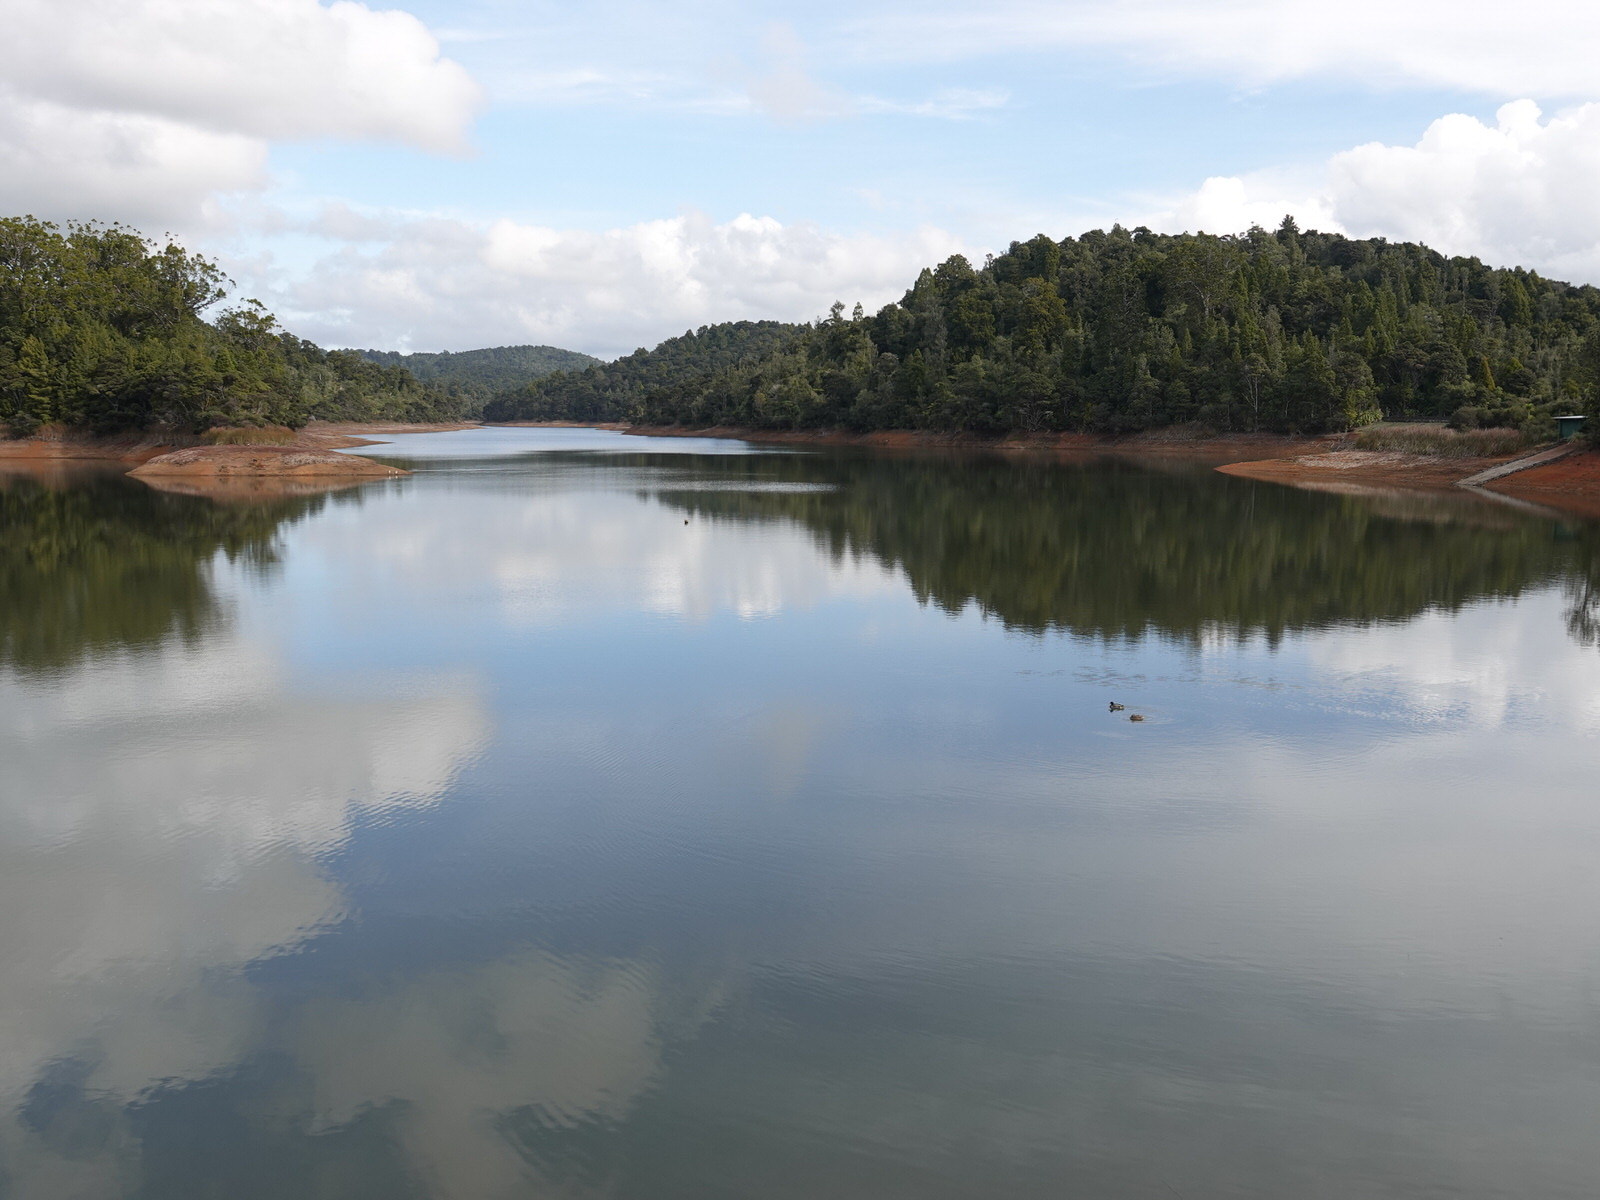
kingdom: Animalia
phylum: Chordata
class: Aves
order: Anseriformes
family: Anatidae
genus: Anas
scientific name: Anas platyrhynchos
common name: Mallard
